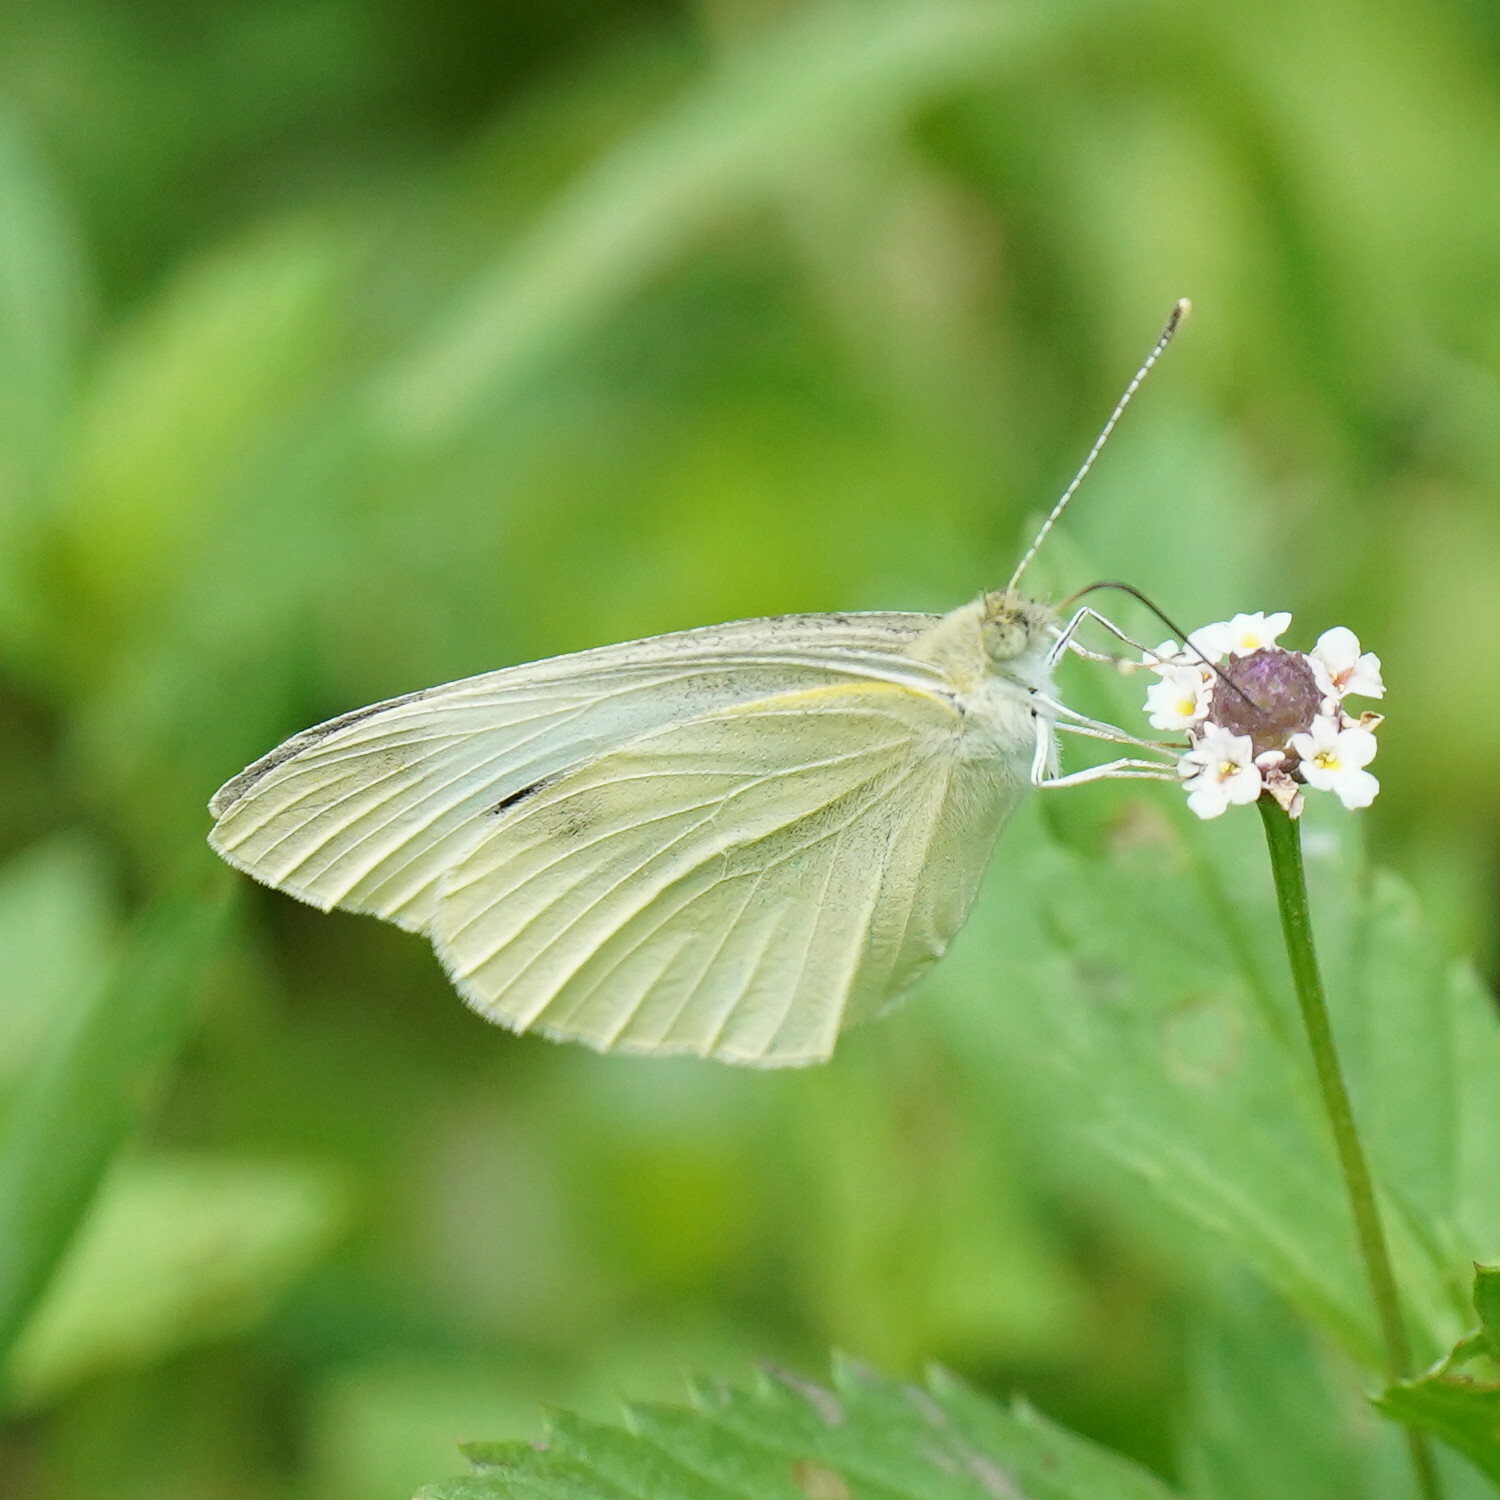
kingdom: Animalia
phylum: Arthropoda
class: Insecta
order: Lepidoptera
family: Pieridae
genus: Pieris
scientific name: Pieris rapae
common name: Small white
